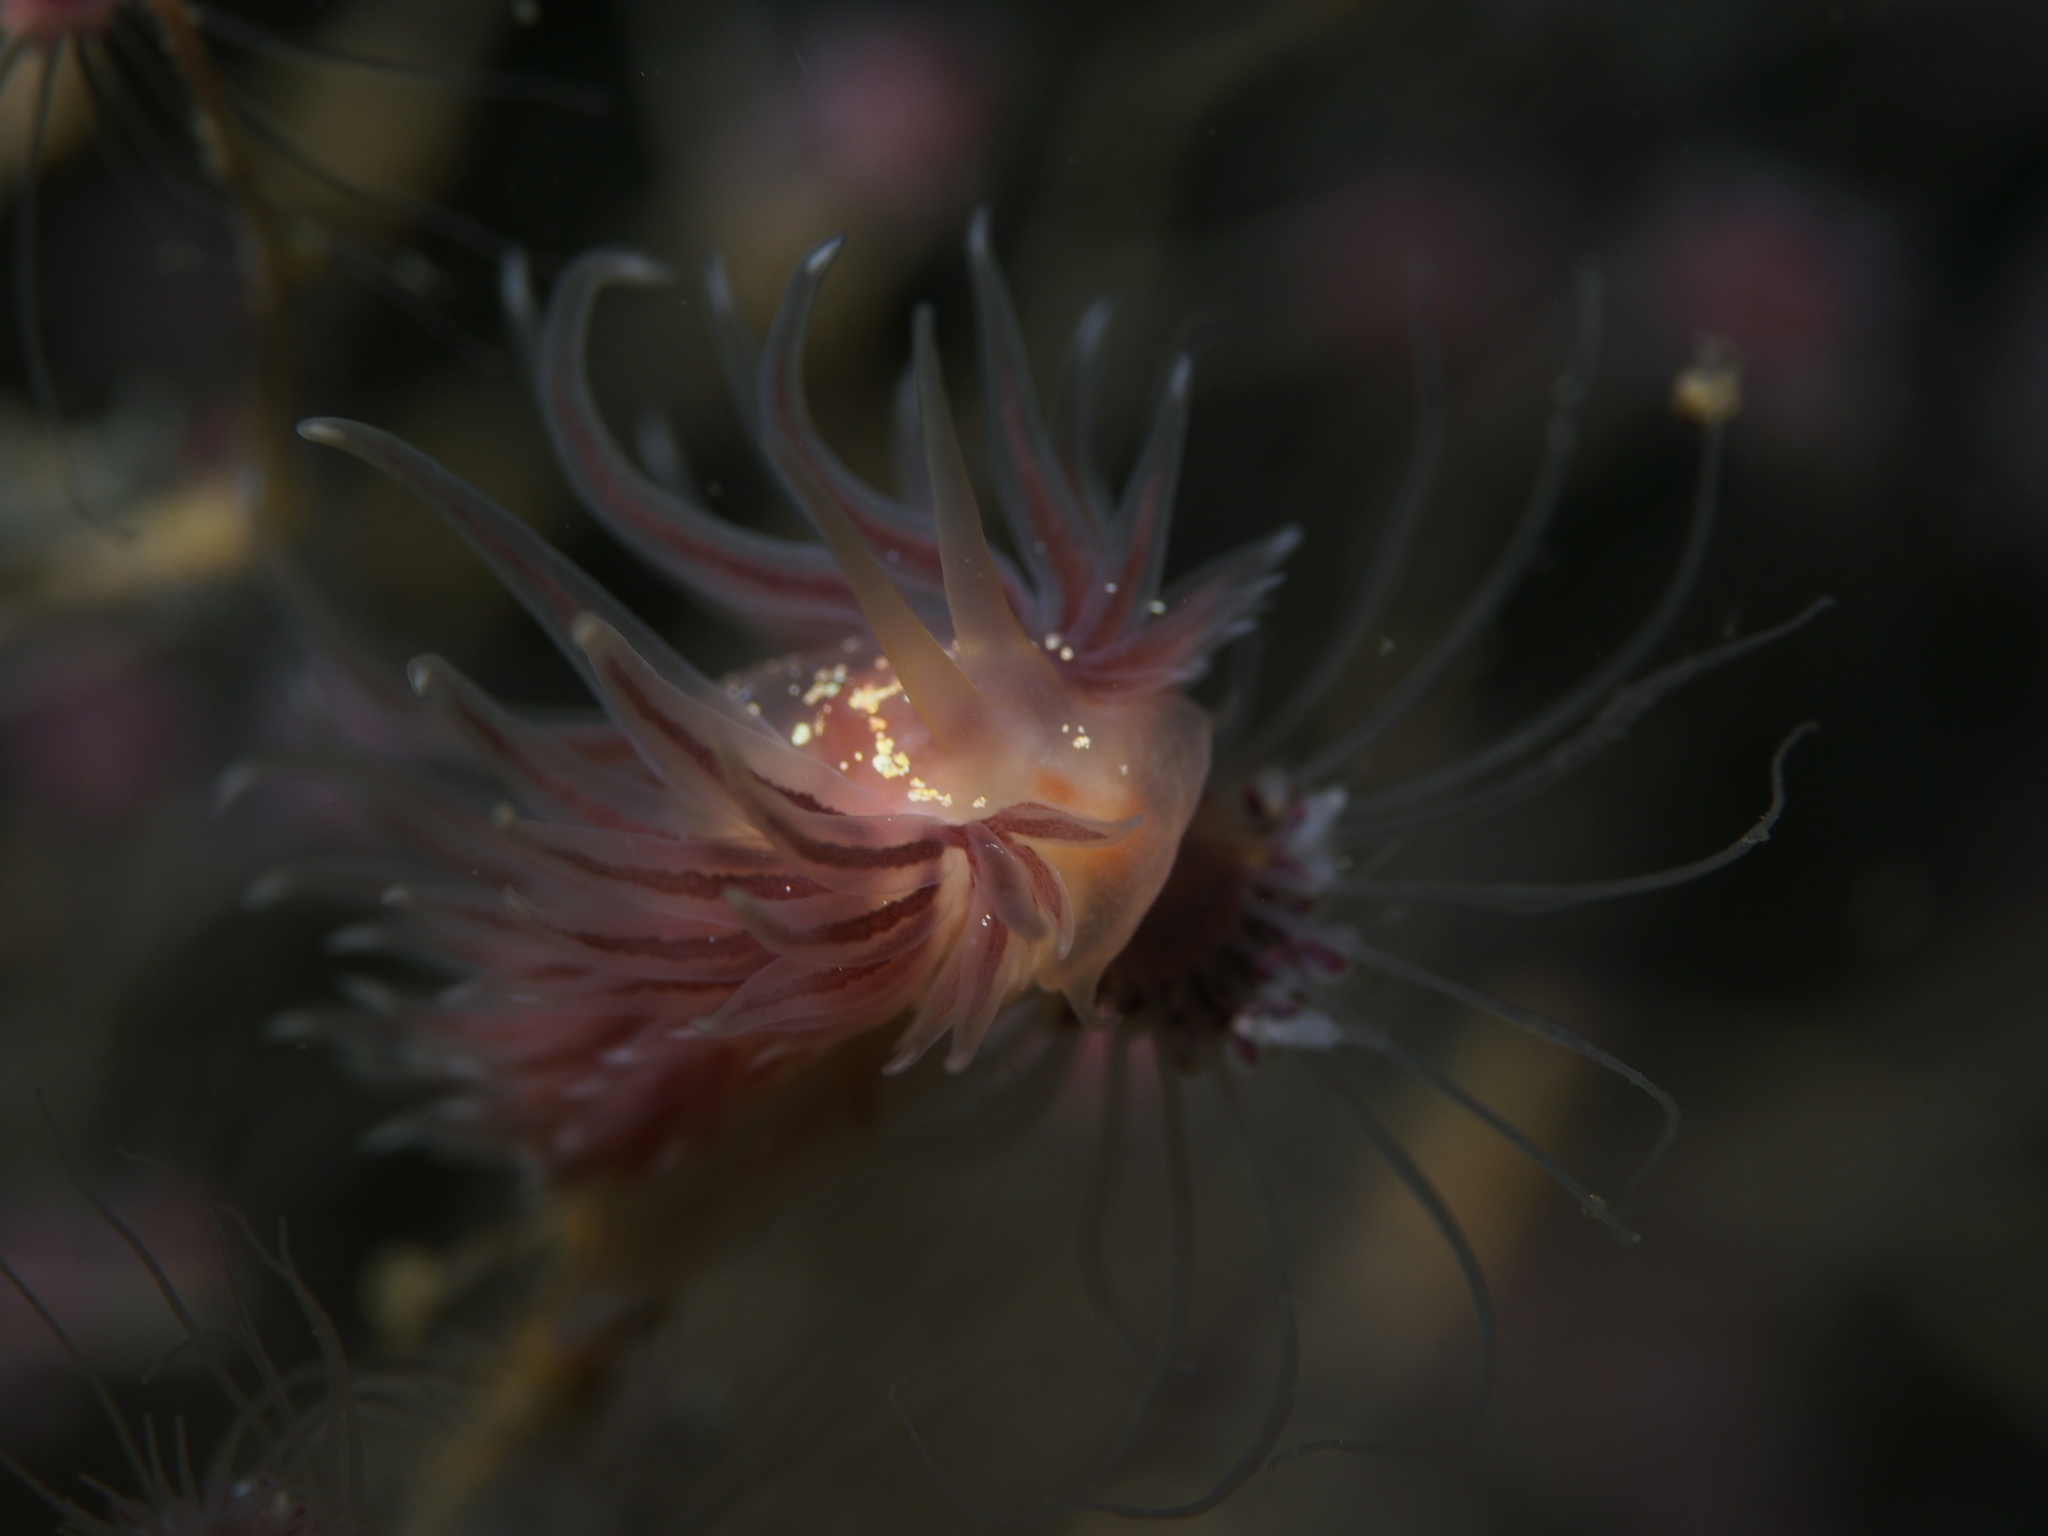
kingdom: Animalia
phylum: Mollusca
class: Gastropoda
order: Nudibranchia
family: Cumanotidae
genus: Cumanotus
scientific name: Cumanotus beaumonti
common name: Polyp aeolis
